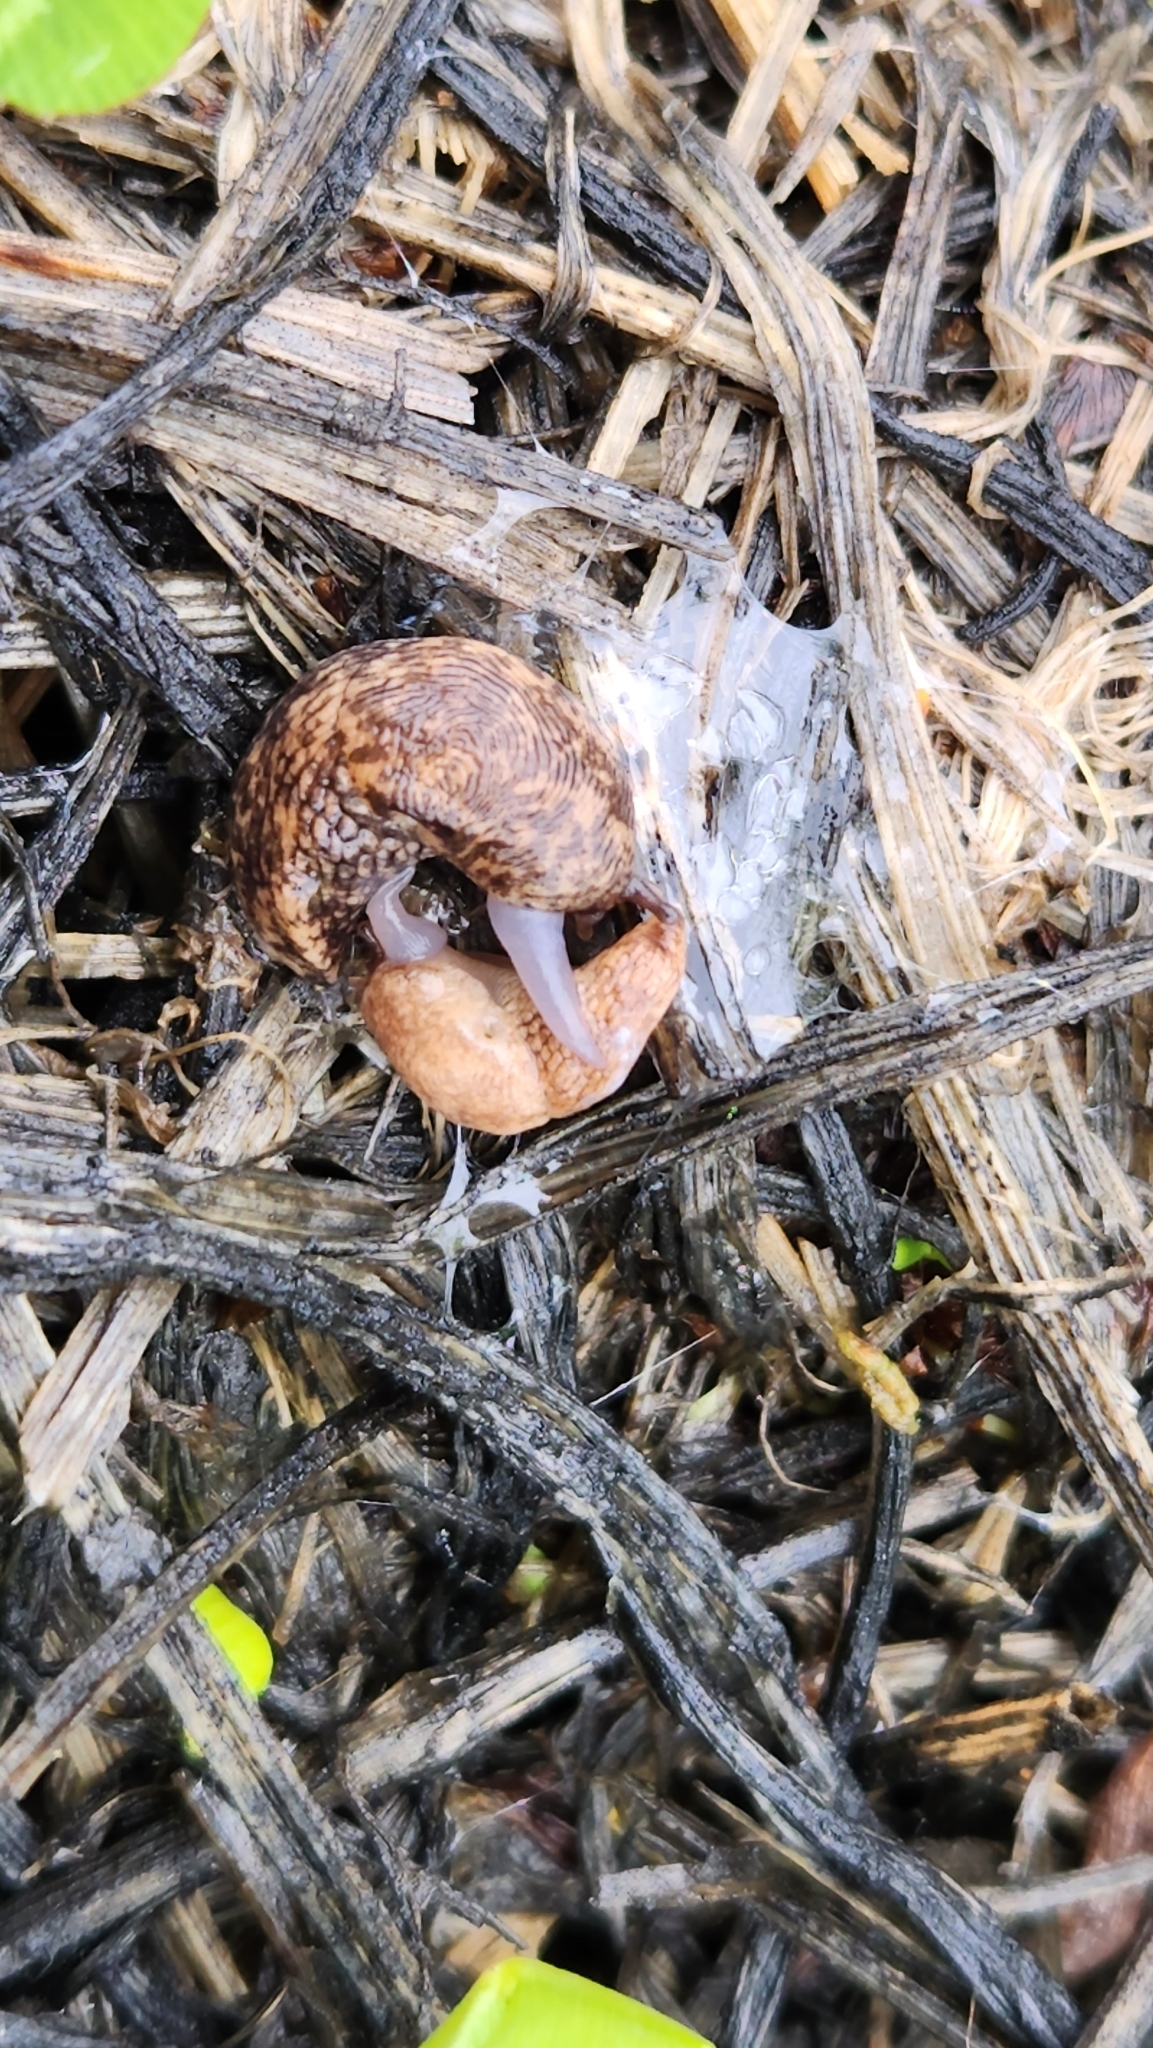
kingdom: Animalia
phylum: Mollusca
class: Gastropoda
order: Stylommatophora
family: Agriolimacidae
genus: Deroceras
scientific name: Deroceras reticulatum
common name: Gray field slug
